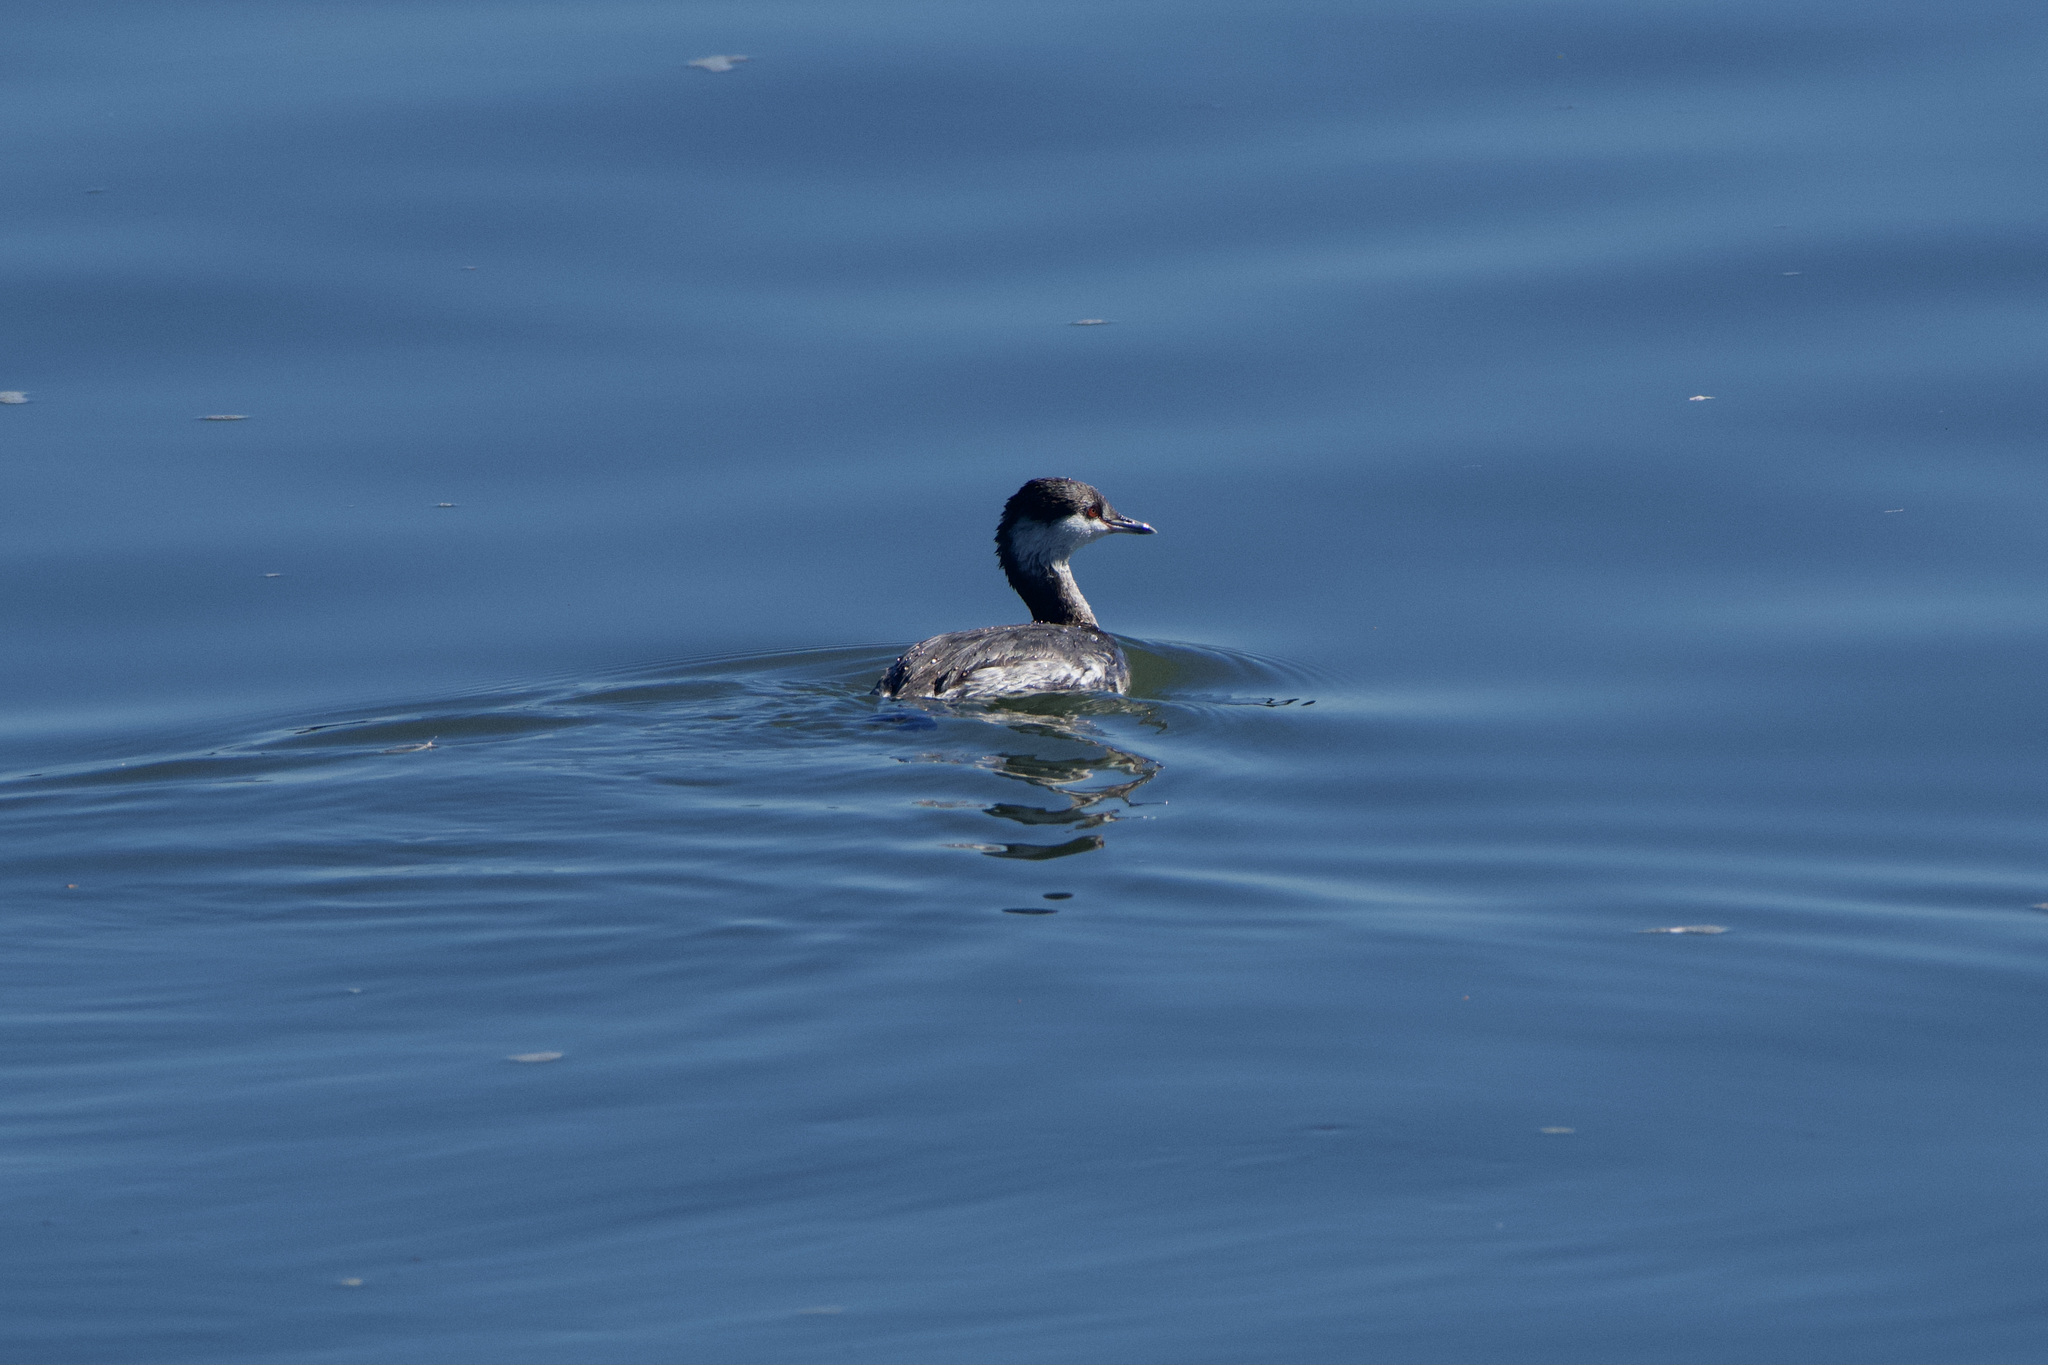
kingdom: Animalia
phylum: Chordata
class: Aves
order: Podicipediformes
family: Podicipedidae
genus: Podiceps
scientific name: Podiceps auritus
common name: Horned grebe
